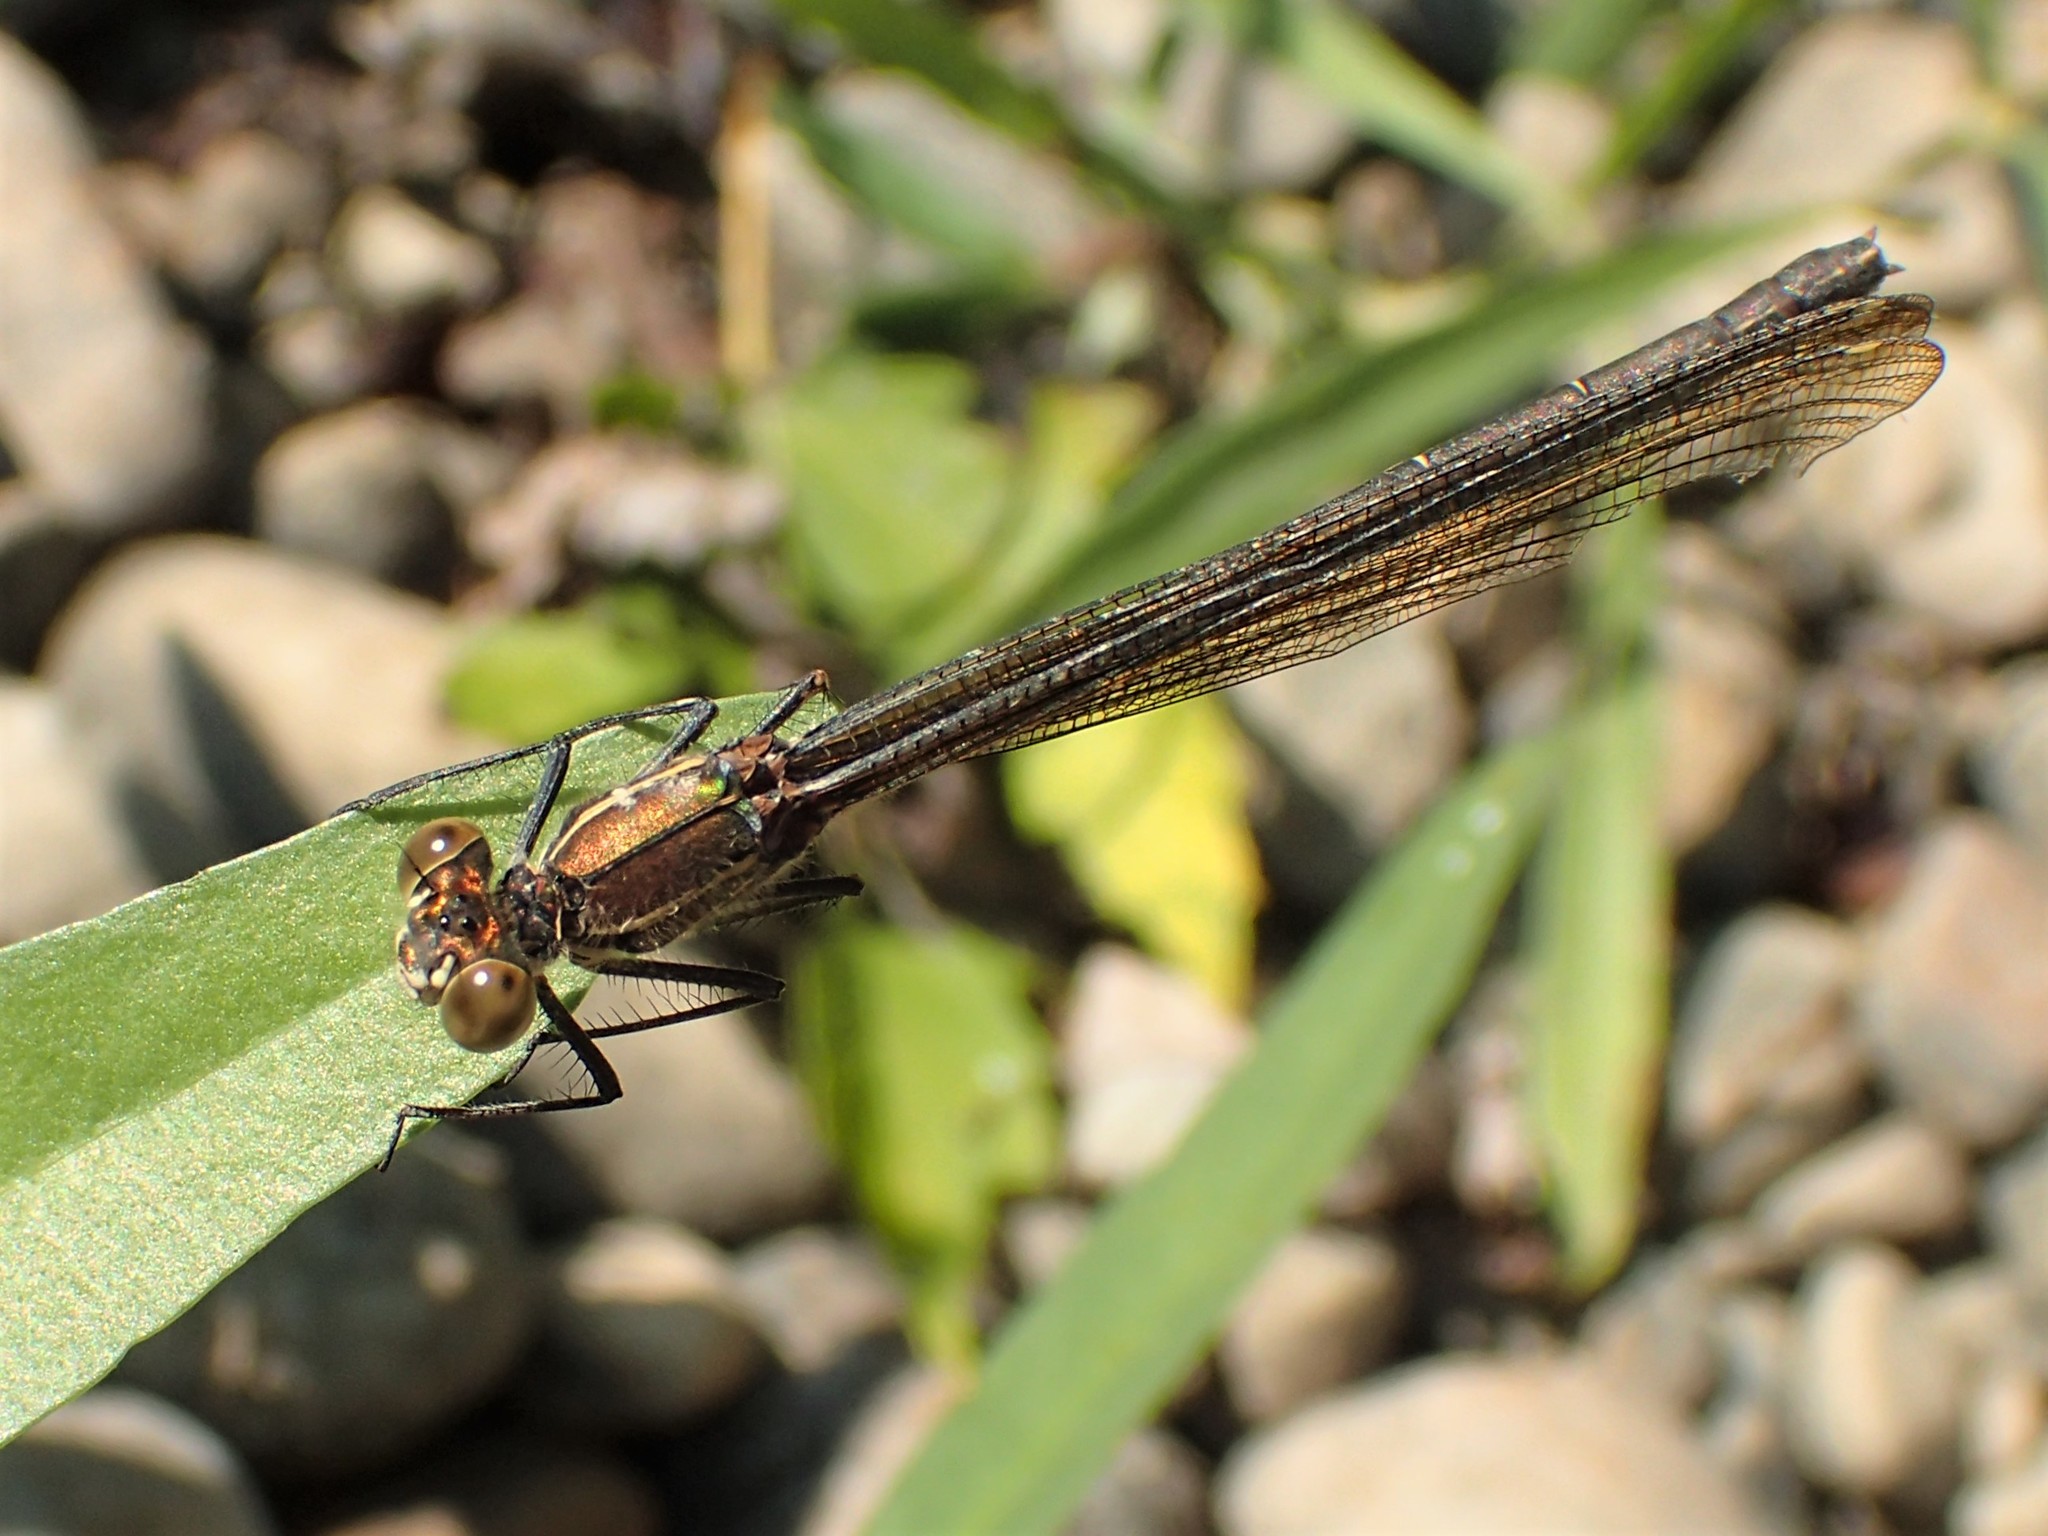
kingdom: Animalia
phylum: Arthropoda
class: Insecta
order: Odonata
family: Calopterygidae
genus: Hetaerina
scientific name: Hetaerina americana
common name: American rubyspot
